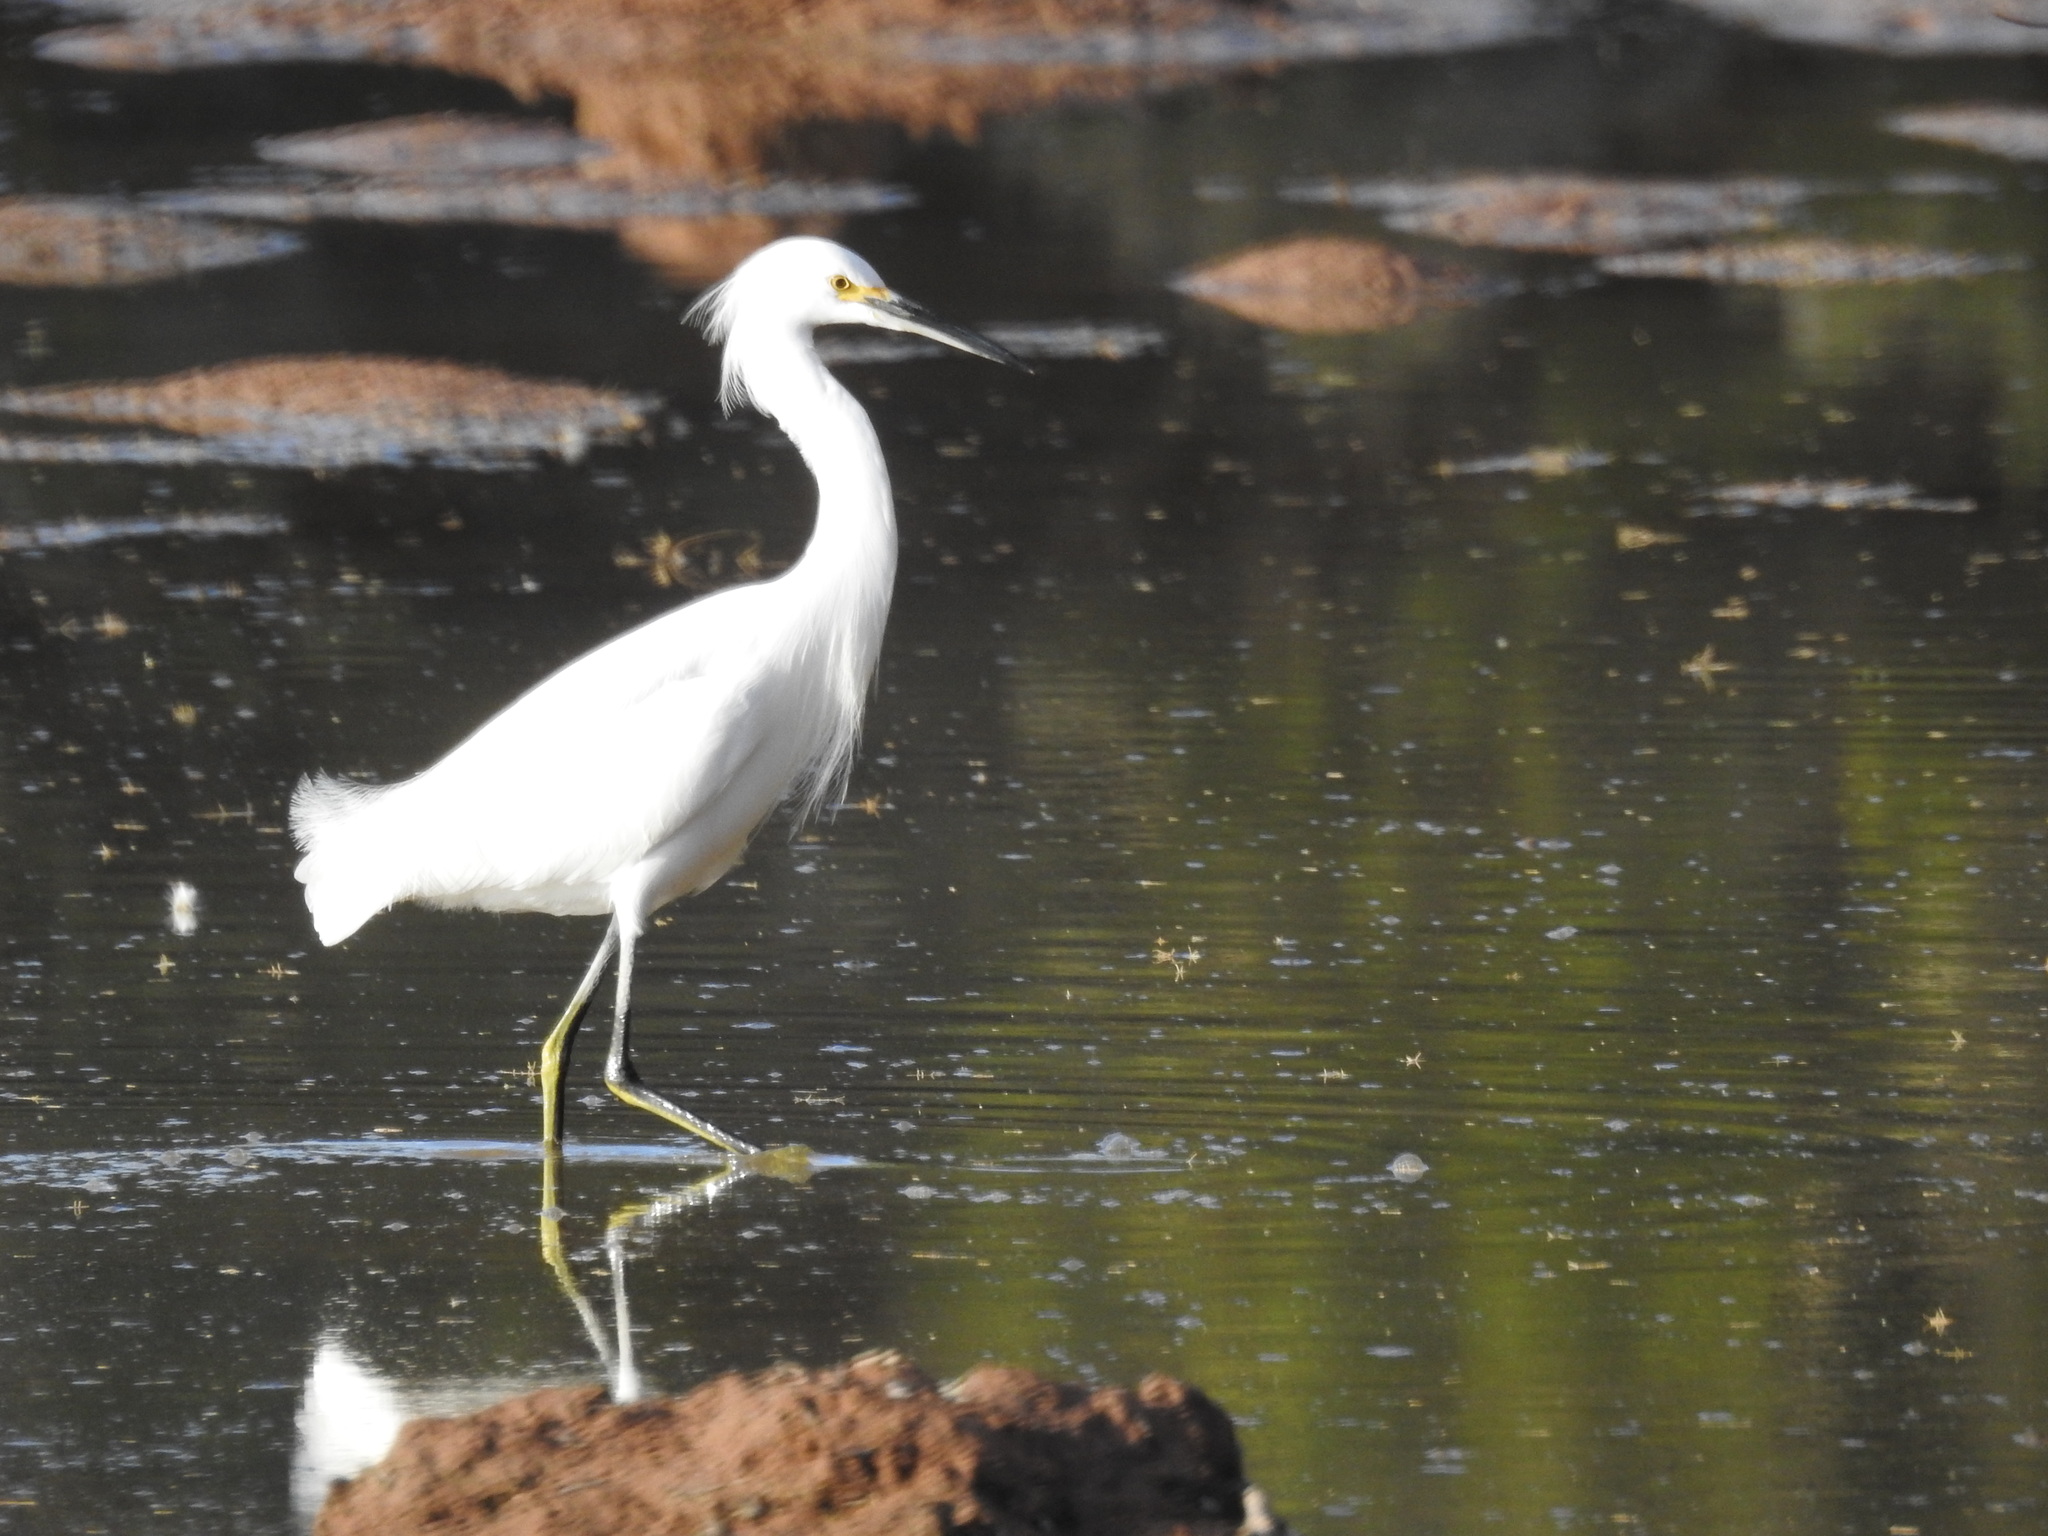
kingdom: Animalia
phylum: Chordata
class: Aves
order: Pelecaniformes
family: Ardeidae
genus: Egretta
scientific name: Egretta thula
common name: Snowy egret
